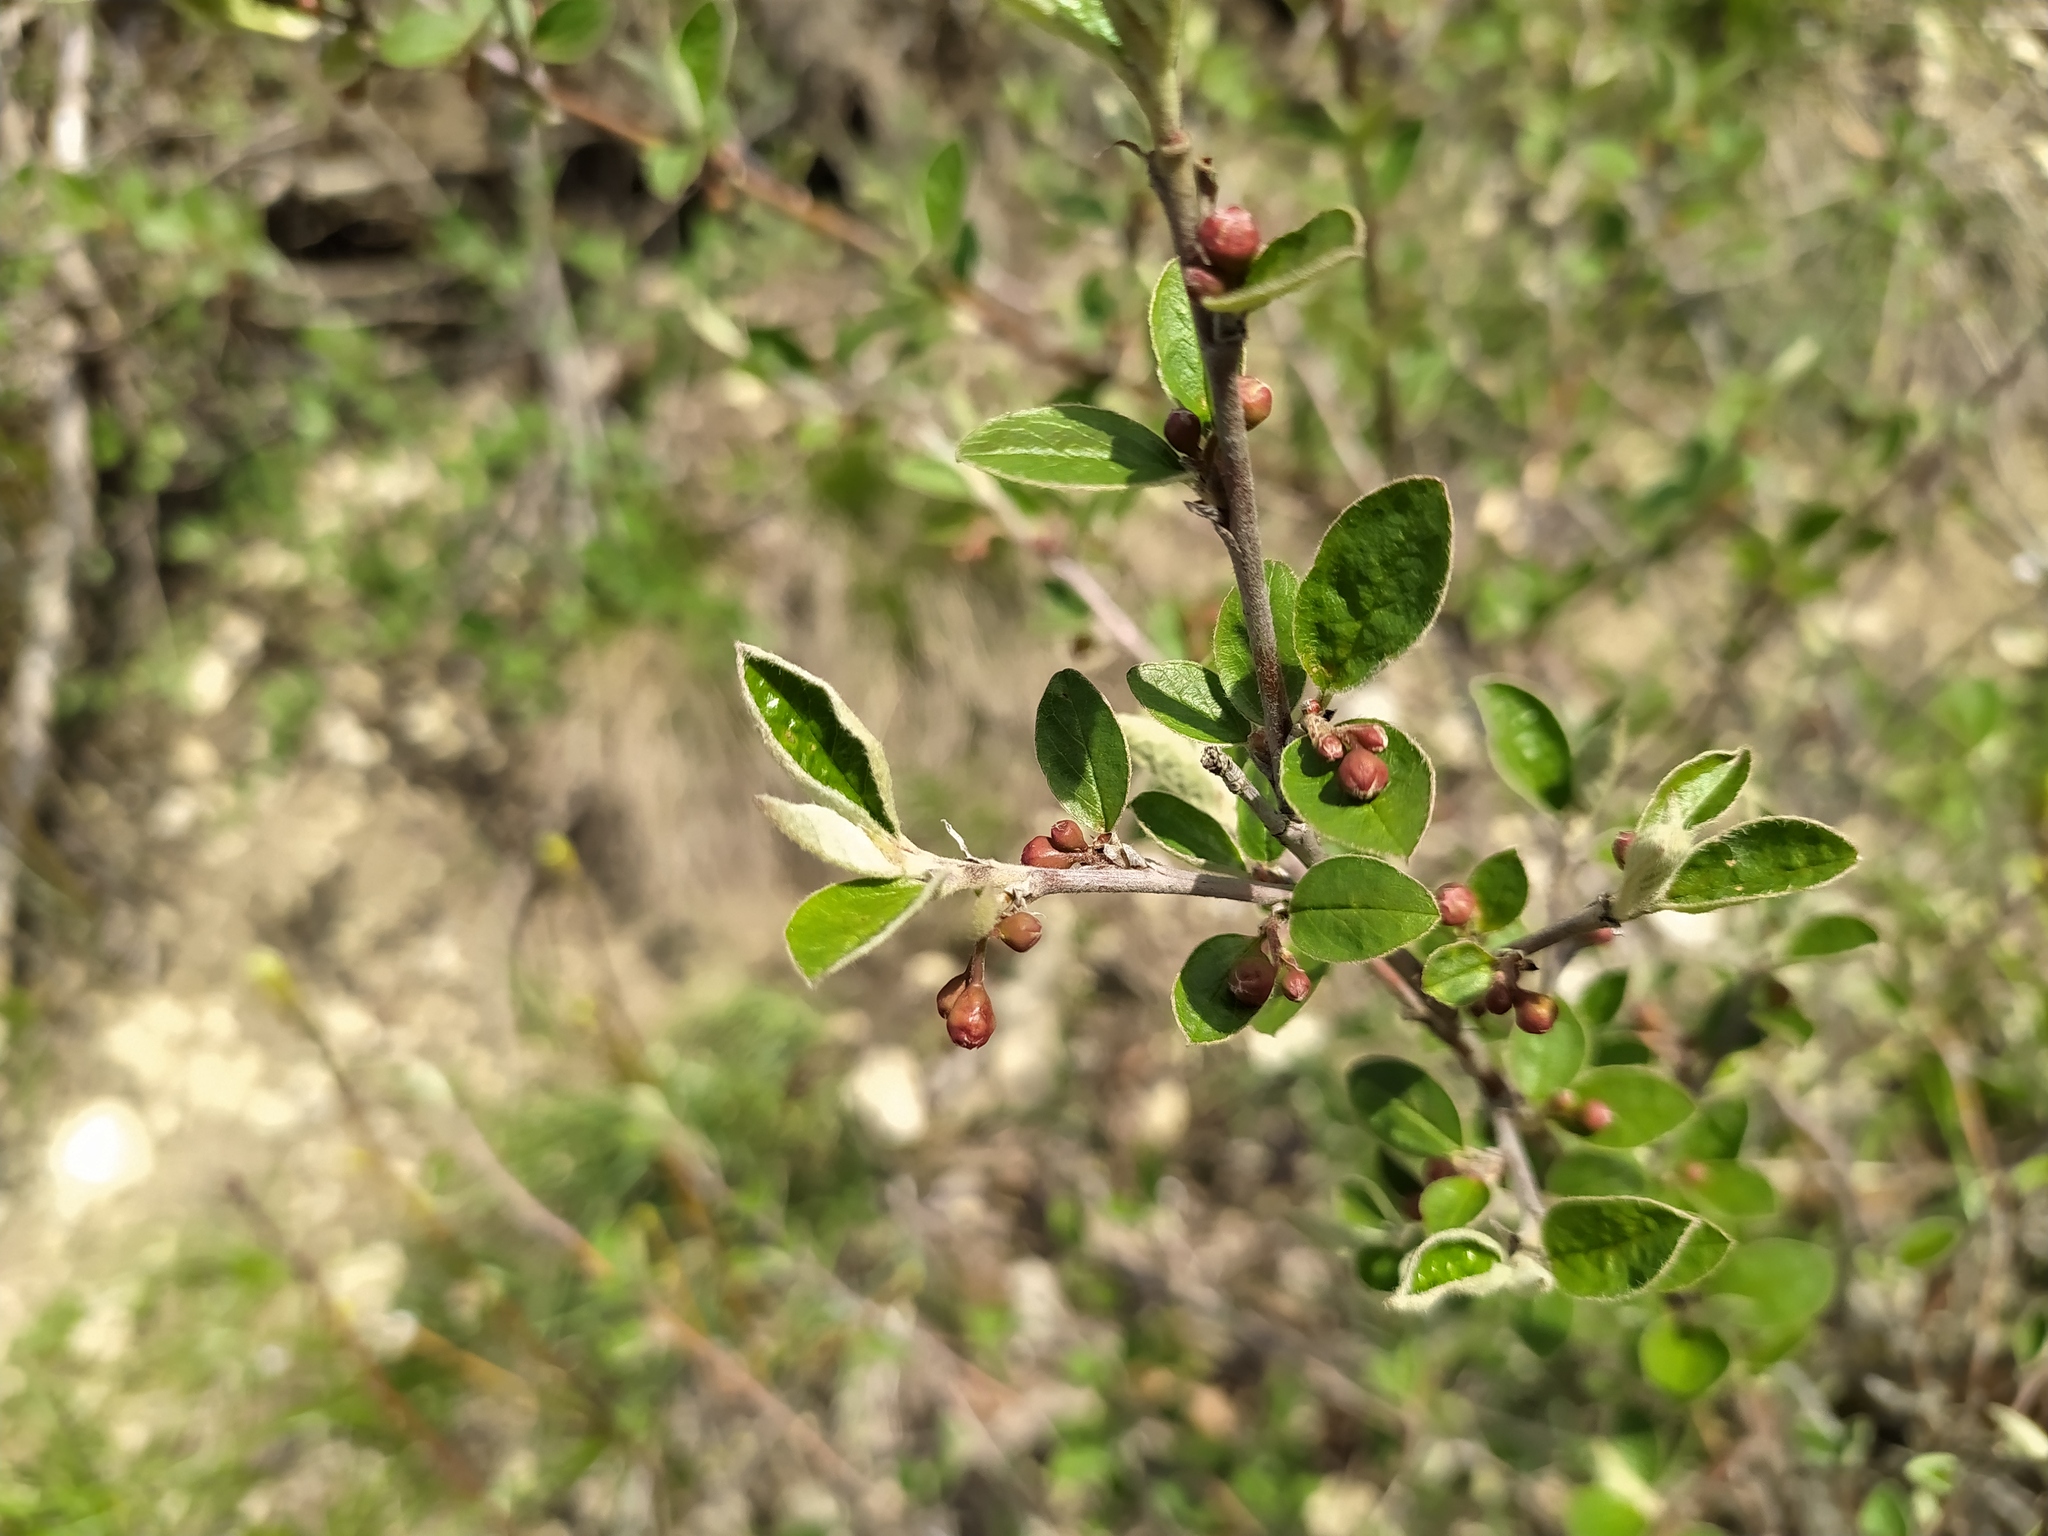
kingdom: Plantae
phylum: Tracheophyta
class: Magnoliopsida
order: Rosales
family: Rosaceae
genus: Cotoneaster
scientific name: Cotoneaster integerrimus
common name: Wild cotoneaster
